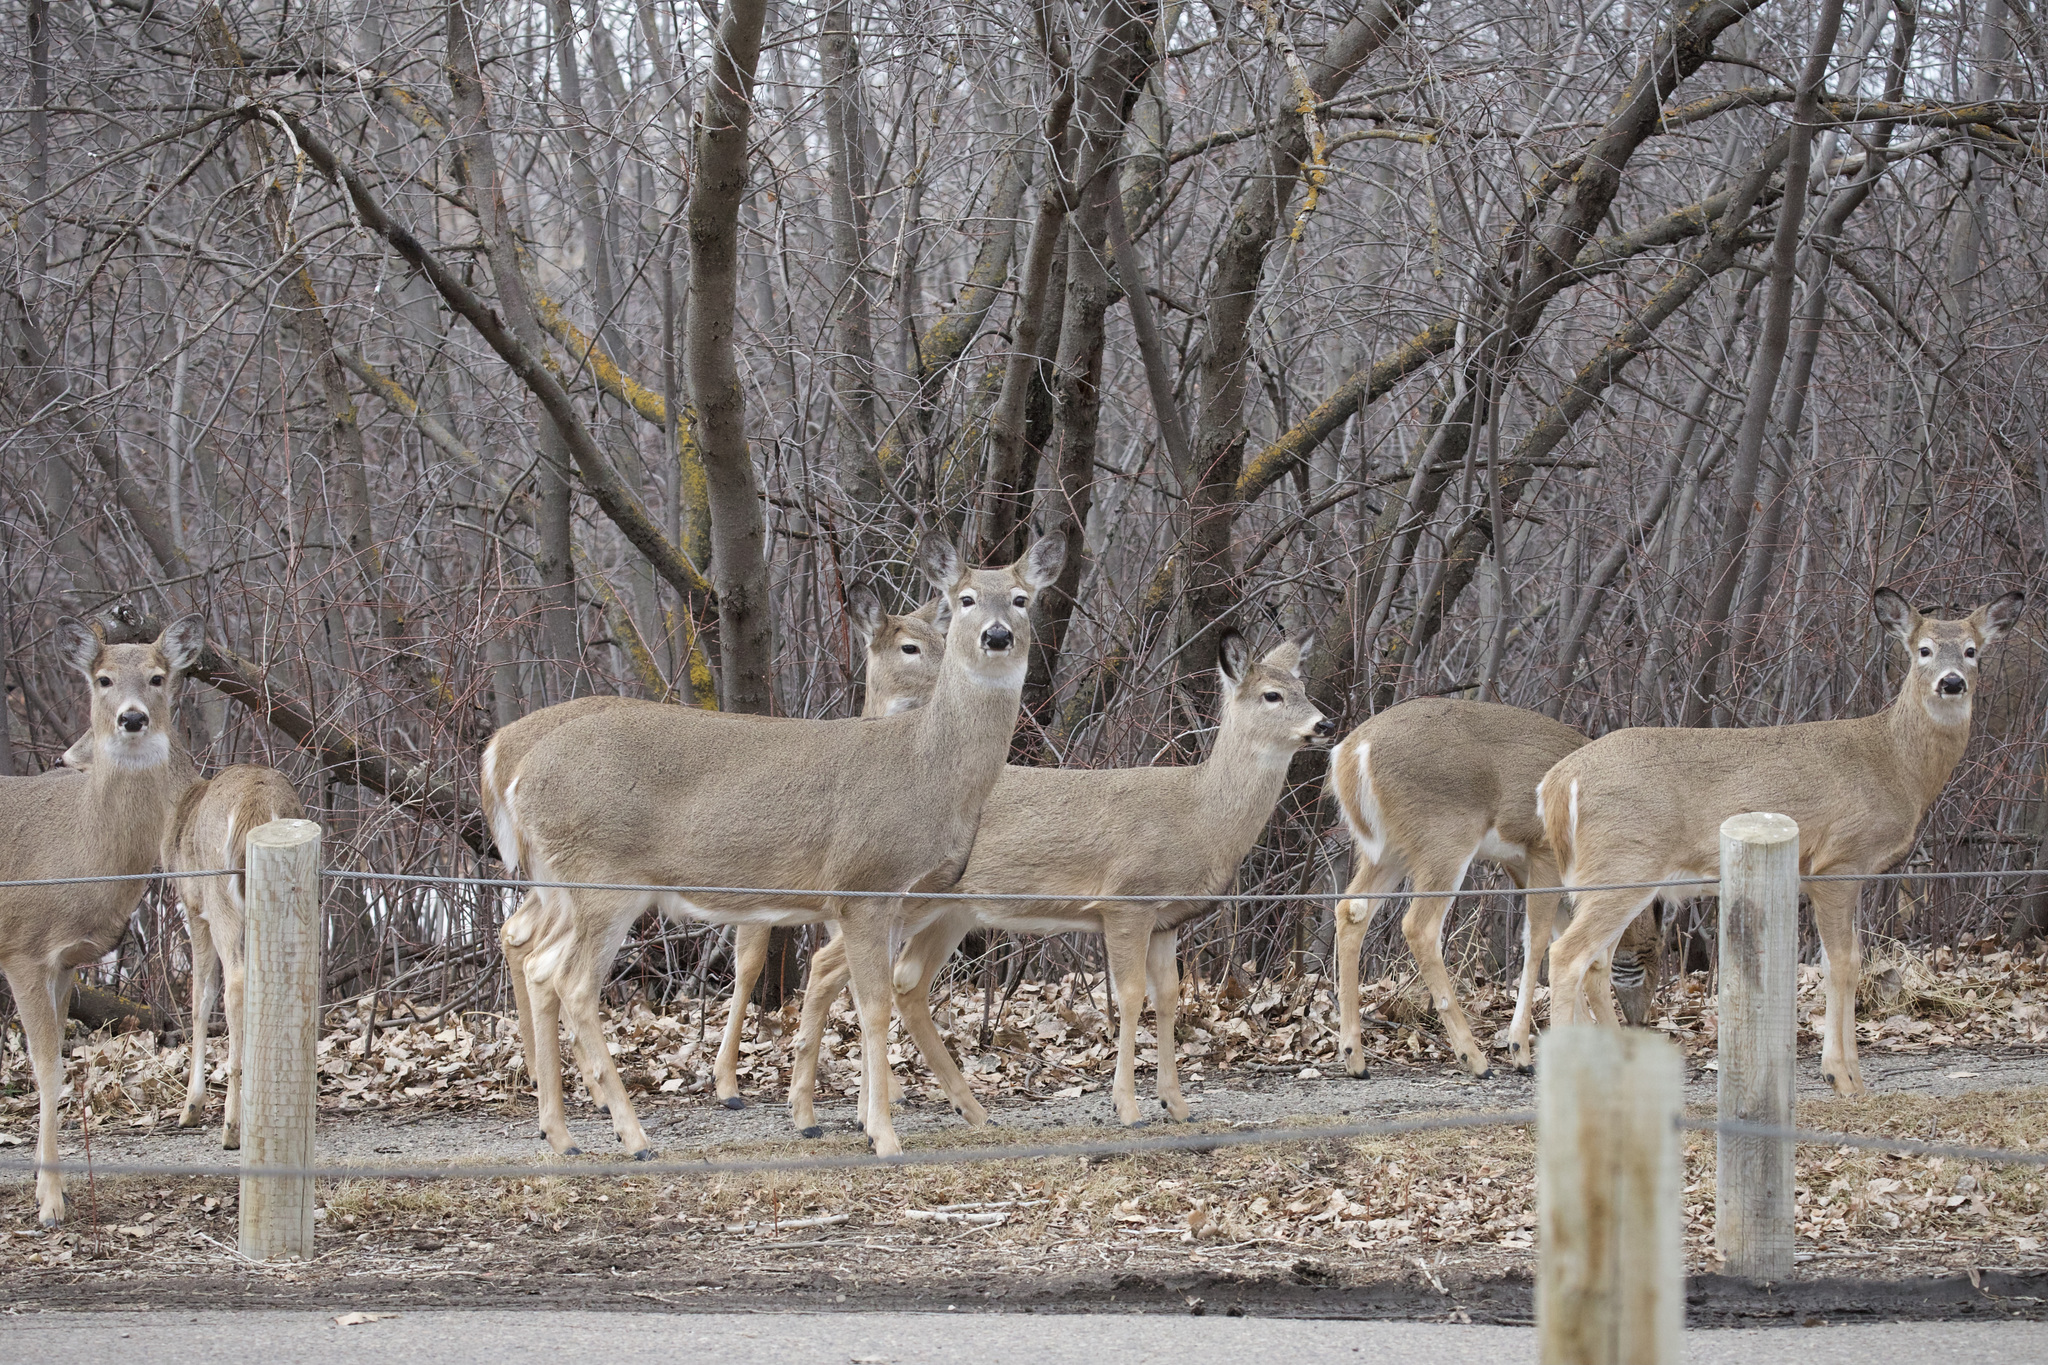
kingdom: Animalia
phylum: Chordata
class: Mammalia
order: Artiodactyla
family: Cervidae
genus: Odocoileus
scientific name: Odocoileus virginianus
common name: White-tailed deer
